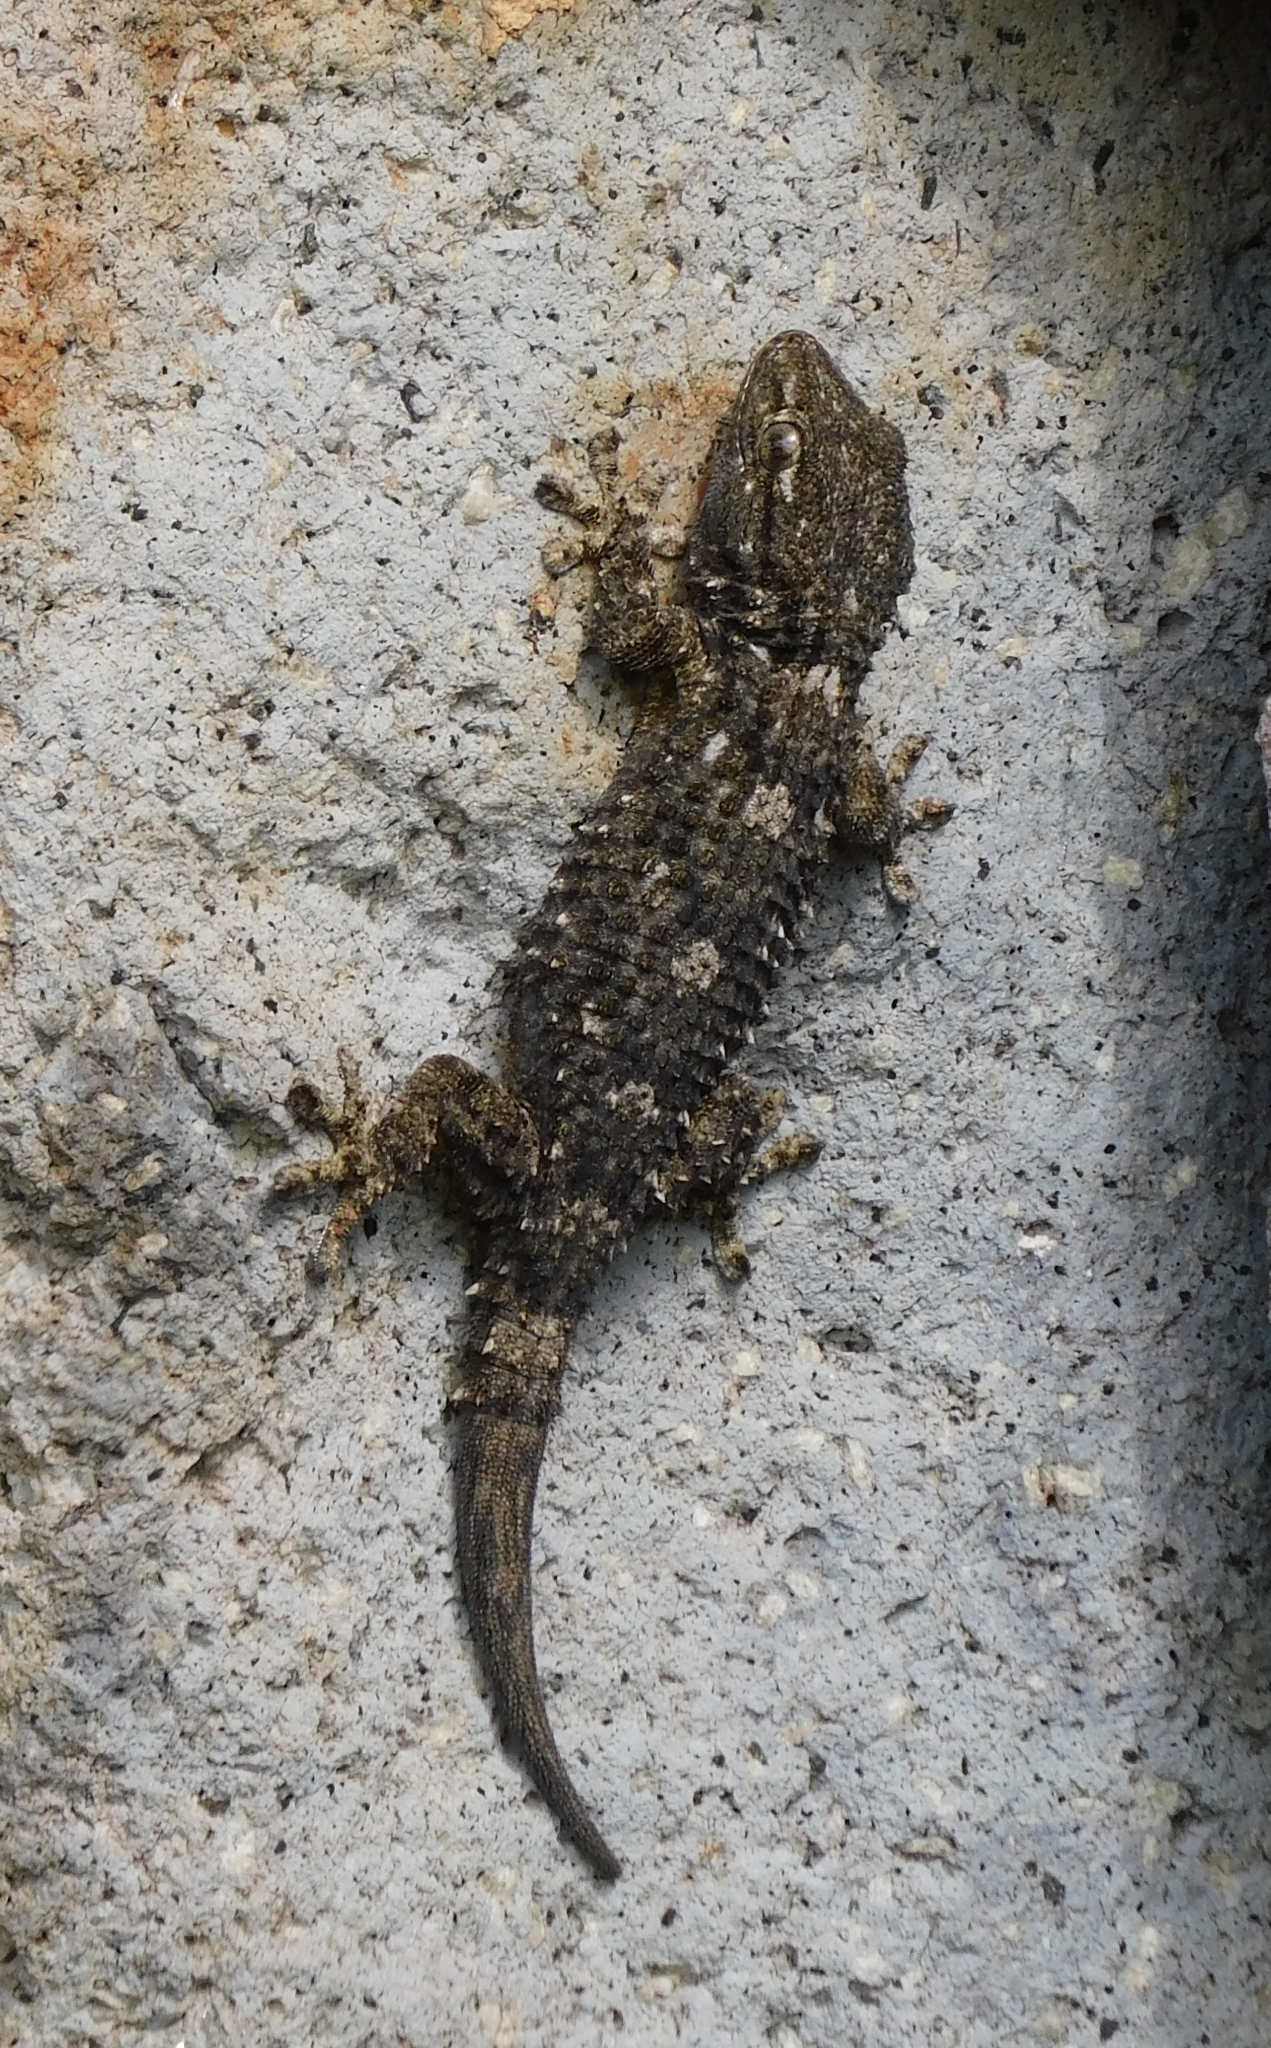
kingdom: Animalia
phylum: Chordata
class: Squamata
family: Phyllodactylidae
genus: Tarentola
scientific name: Tarentola mauritanica
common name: Moorish gecko
